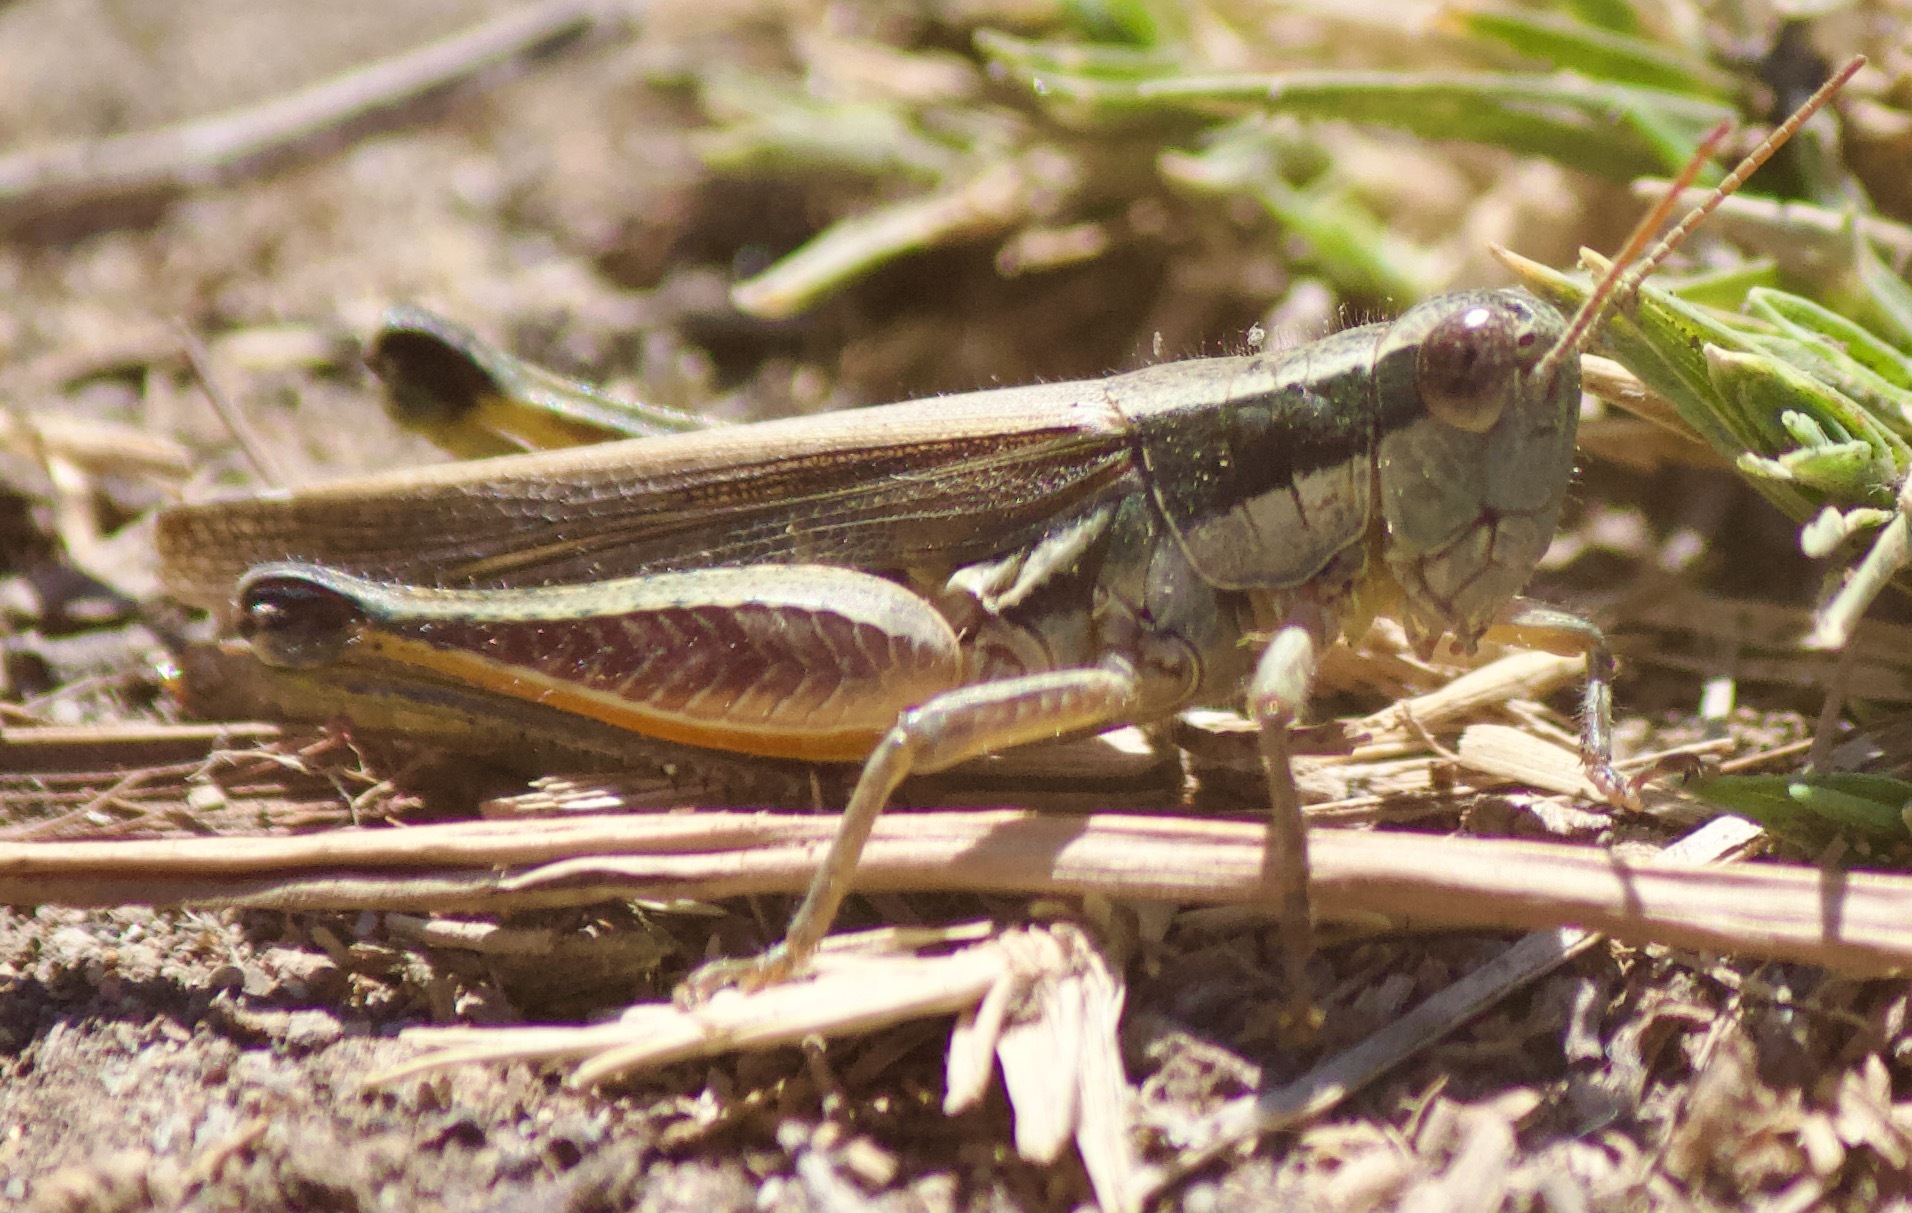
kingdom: Animalia
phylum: Arthropoda
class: Insecta
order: Orthoptera
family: Acrididae
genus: Dichroplus
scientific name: Dichroplus elongatus
